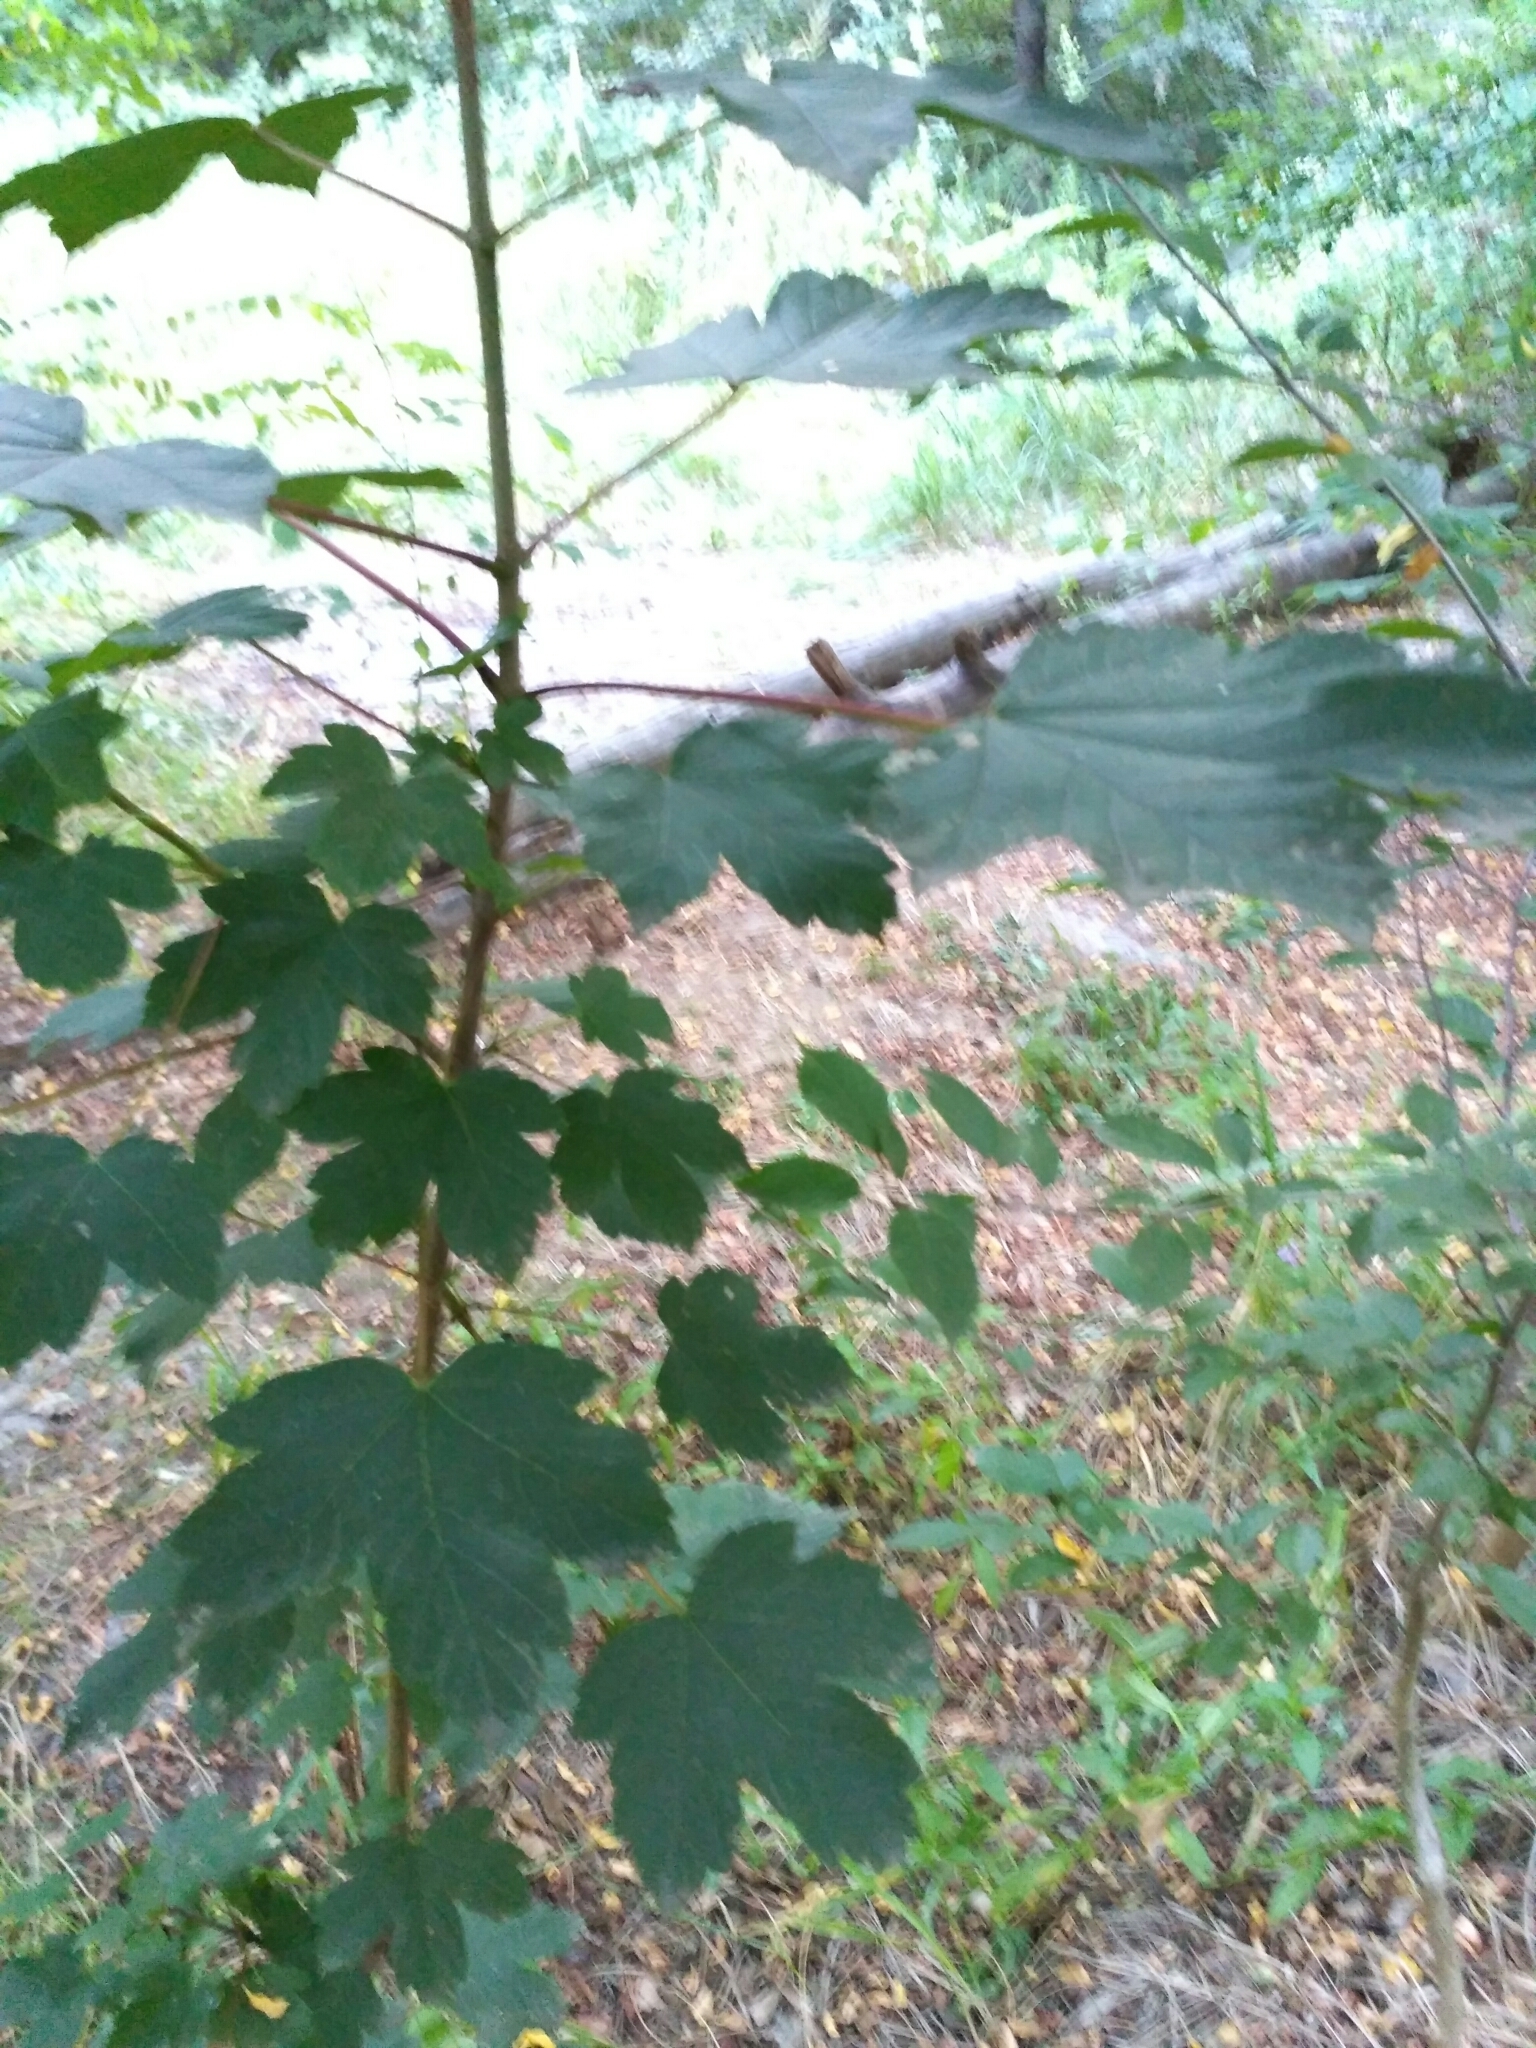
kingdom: Plantae
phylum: Tracheophyta
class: Magnoliopsida
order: Sapindales
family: Sapindaceae
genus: Acer
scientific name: Acer pseudoplatanus
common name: Sycamore
